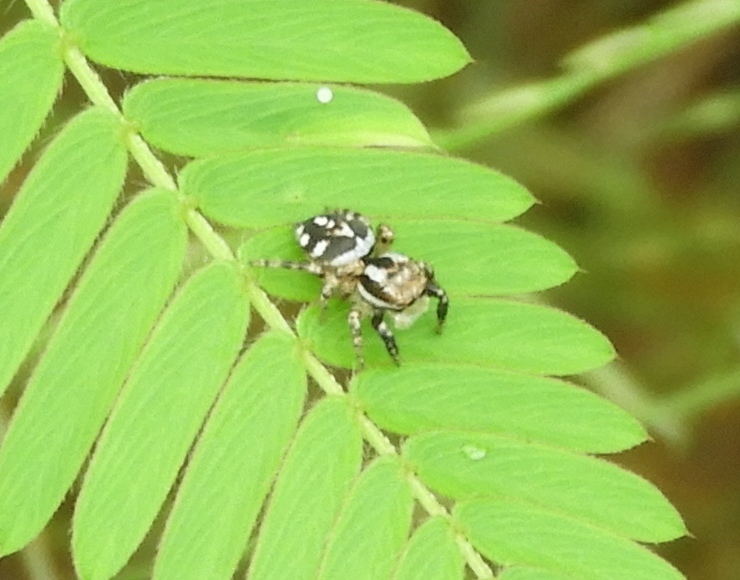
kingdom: Animalia
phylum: Arthropoda
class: Arachnida
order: Araneae
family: Salticidae
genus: Habronattus
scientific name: Habronattus contingens
